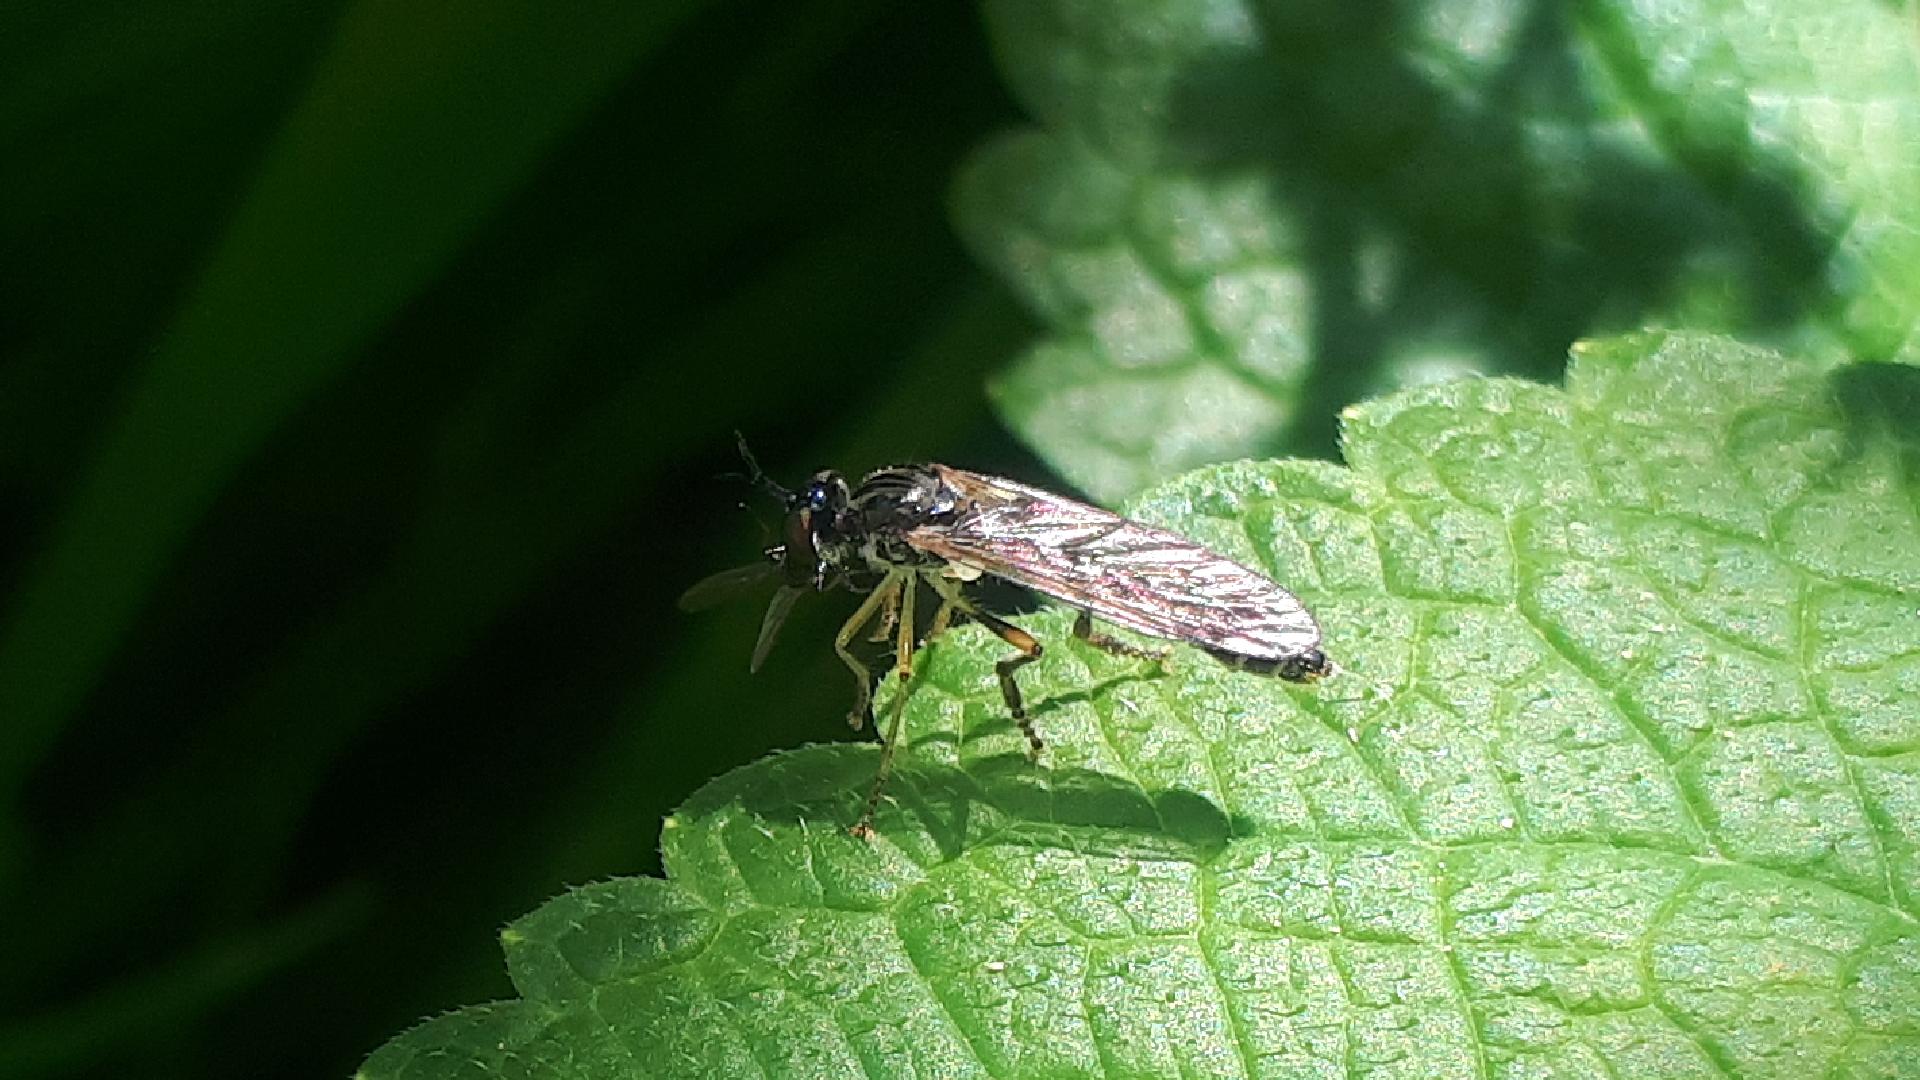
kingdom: Animalia
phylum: Arthropoda
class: Insecta
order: Diptera
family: Asilidae
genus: Dioctria
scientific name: Dioctria linearis
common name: Small yellow-legged robberfly
